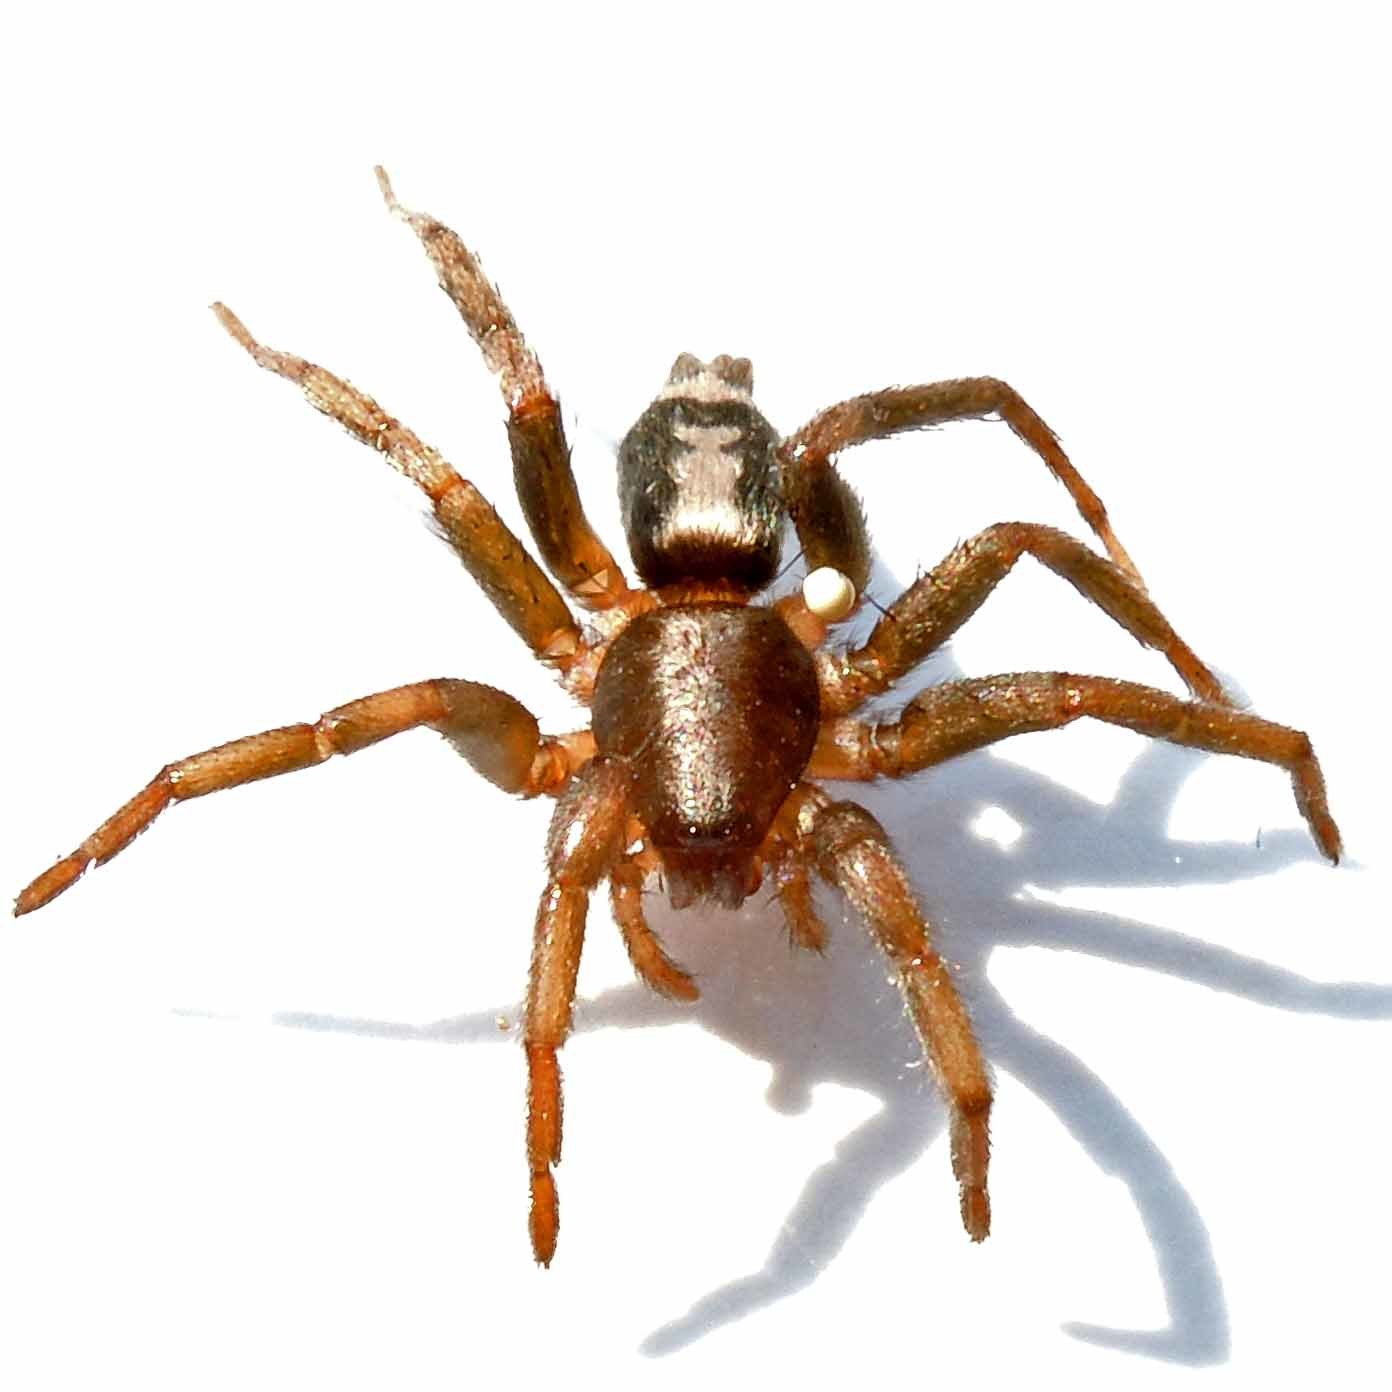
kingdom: Animalia
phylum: Arthropoda
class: Arachnida
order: Araneae
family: Gnaphosidae
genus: Herpyllus
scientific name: Herpyllus ecclesiasticus
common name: Eastern parson spider
